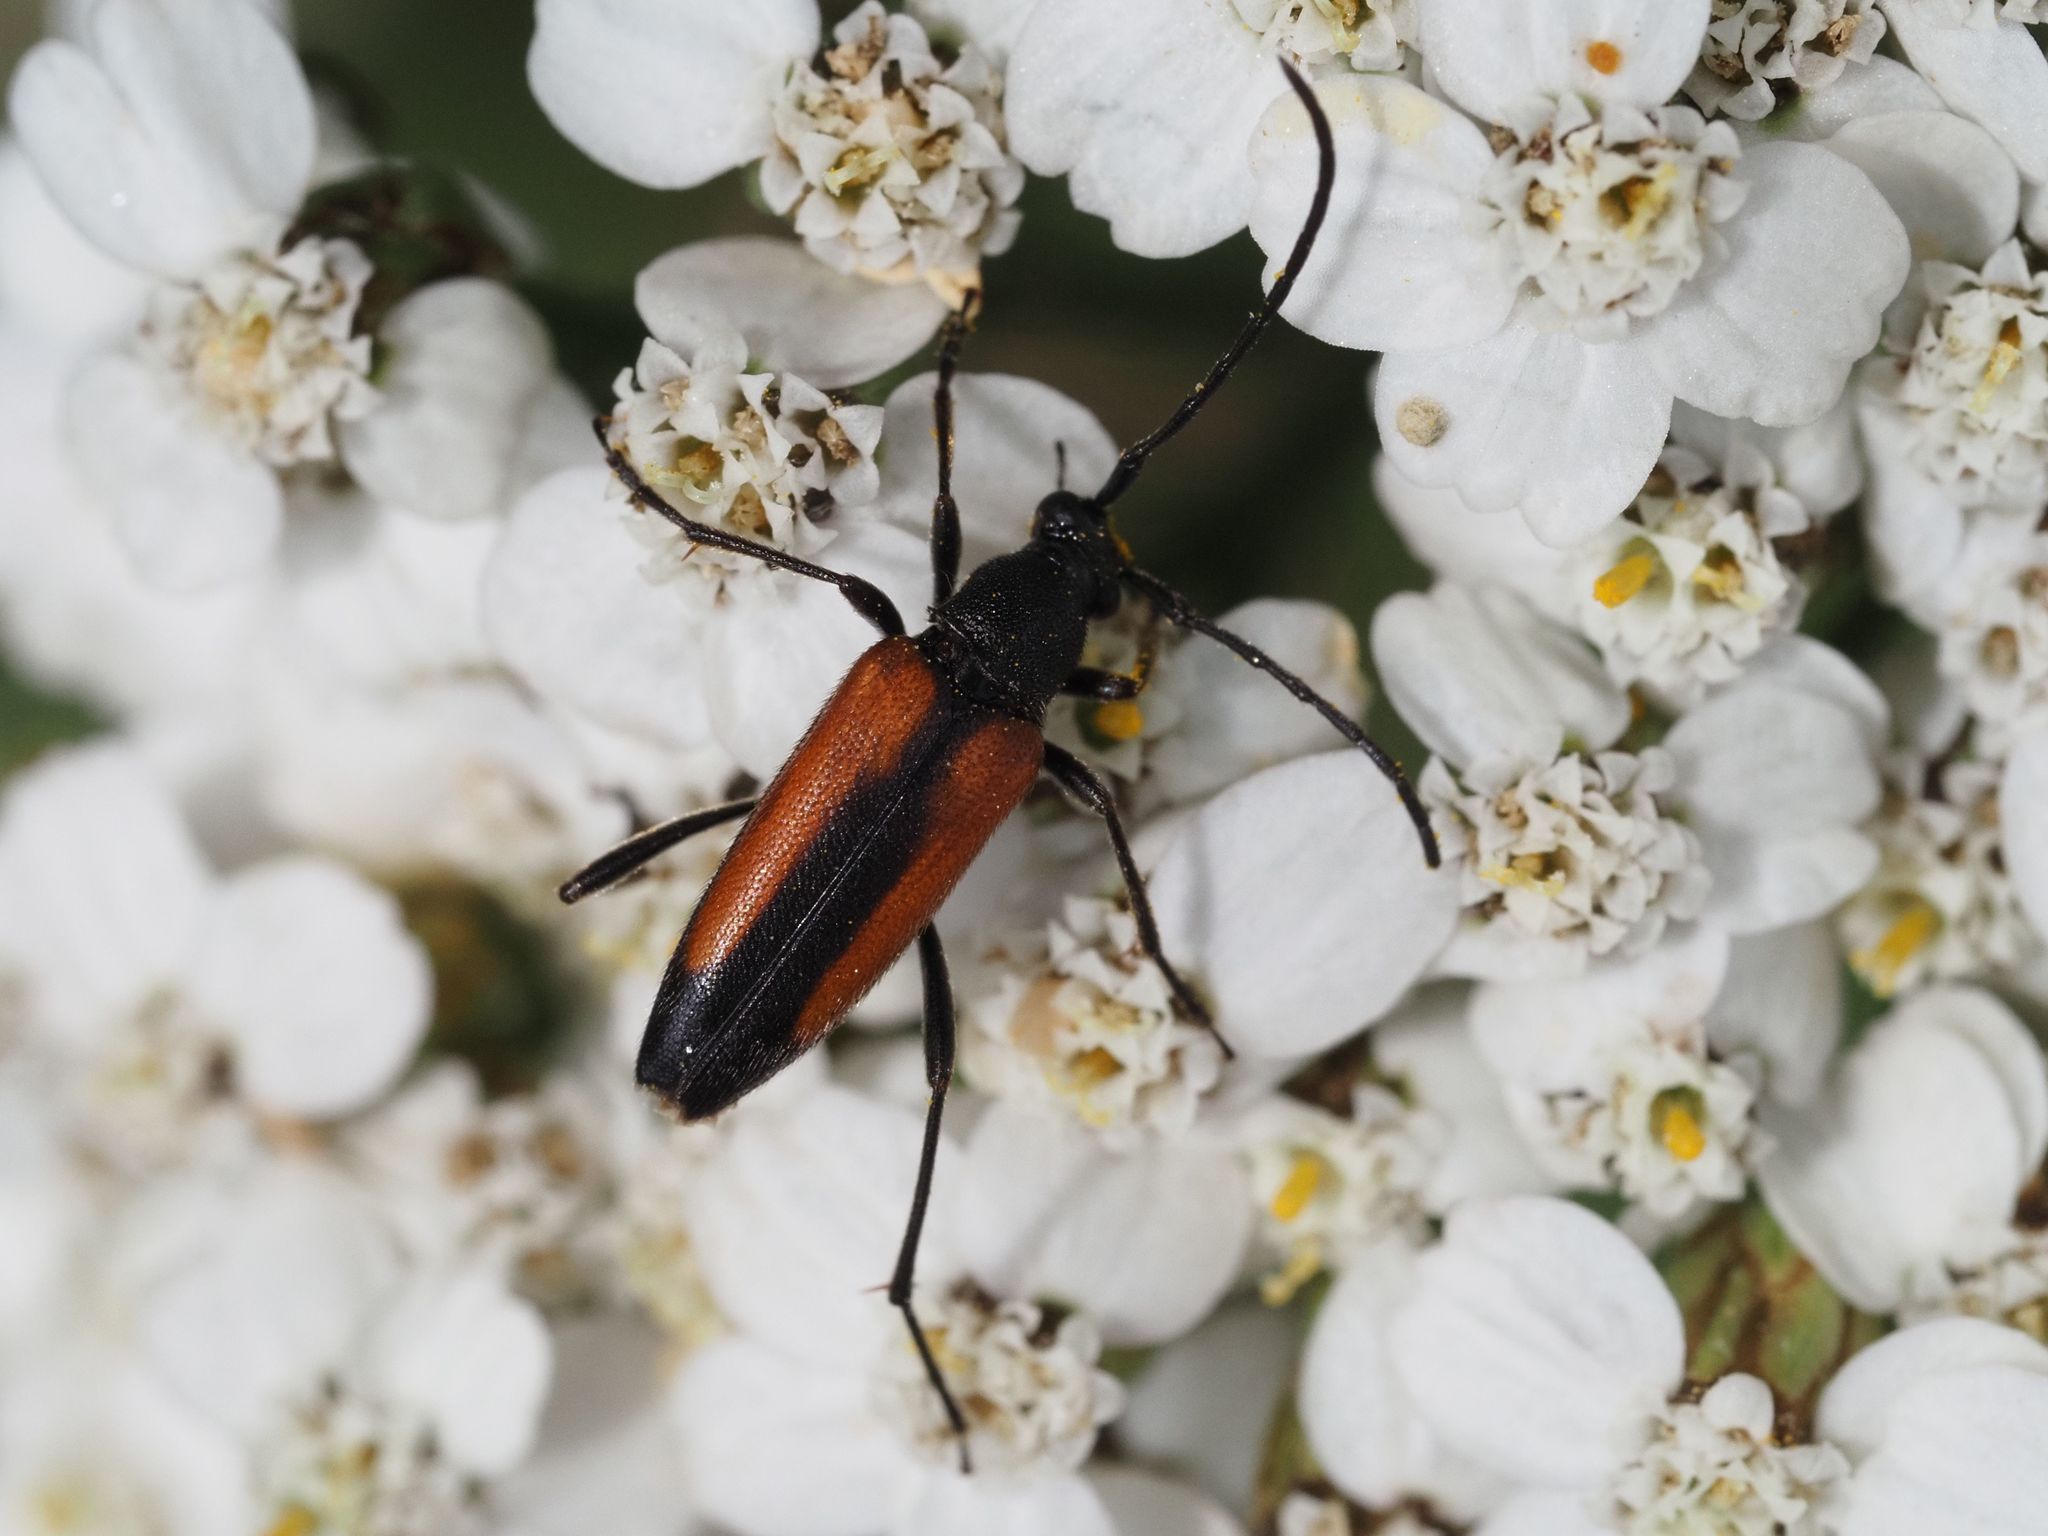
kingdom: Animalia
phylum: Arthropoda
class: Insecta
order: Coleoptera
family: Cerambycidae
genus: Stenurella
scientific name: Stenurella melanura
